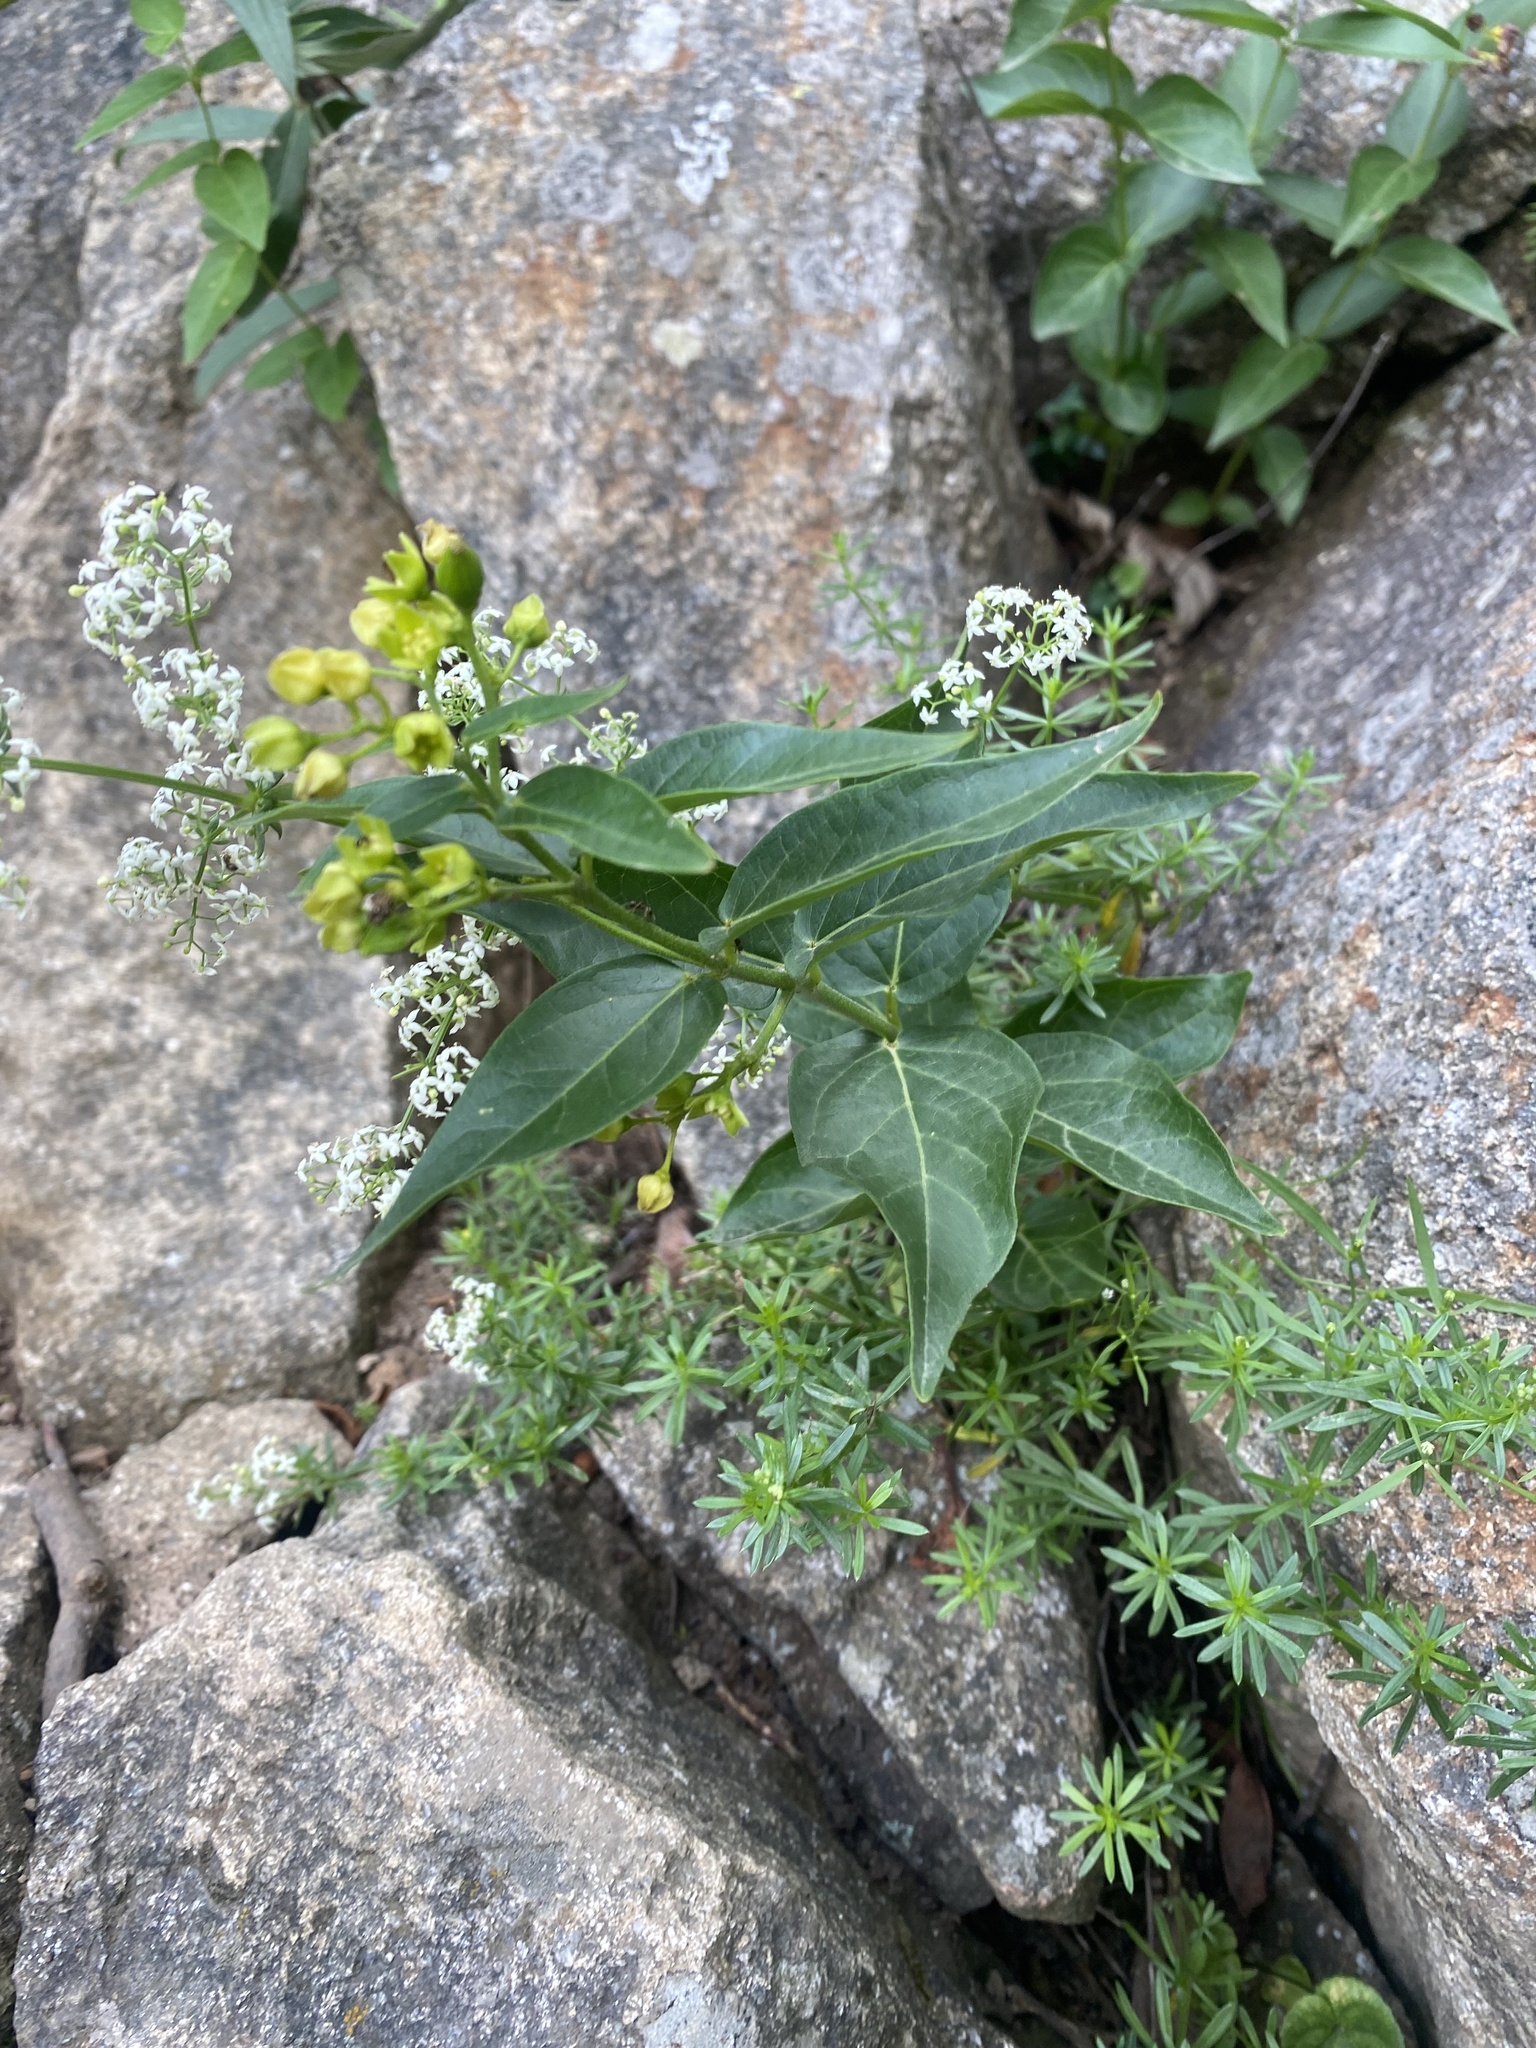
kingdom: Plantae
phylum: Tracheophyta
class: Magnoliopsida
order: Gentianales
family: Apocynaceae
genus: Vincetoxicum
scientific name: Vincetoxicum hirundinaria
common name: White swallowwort
